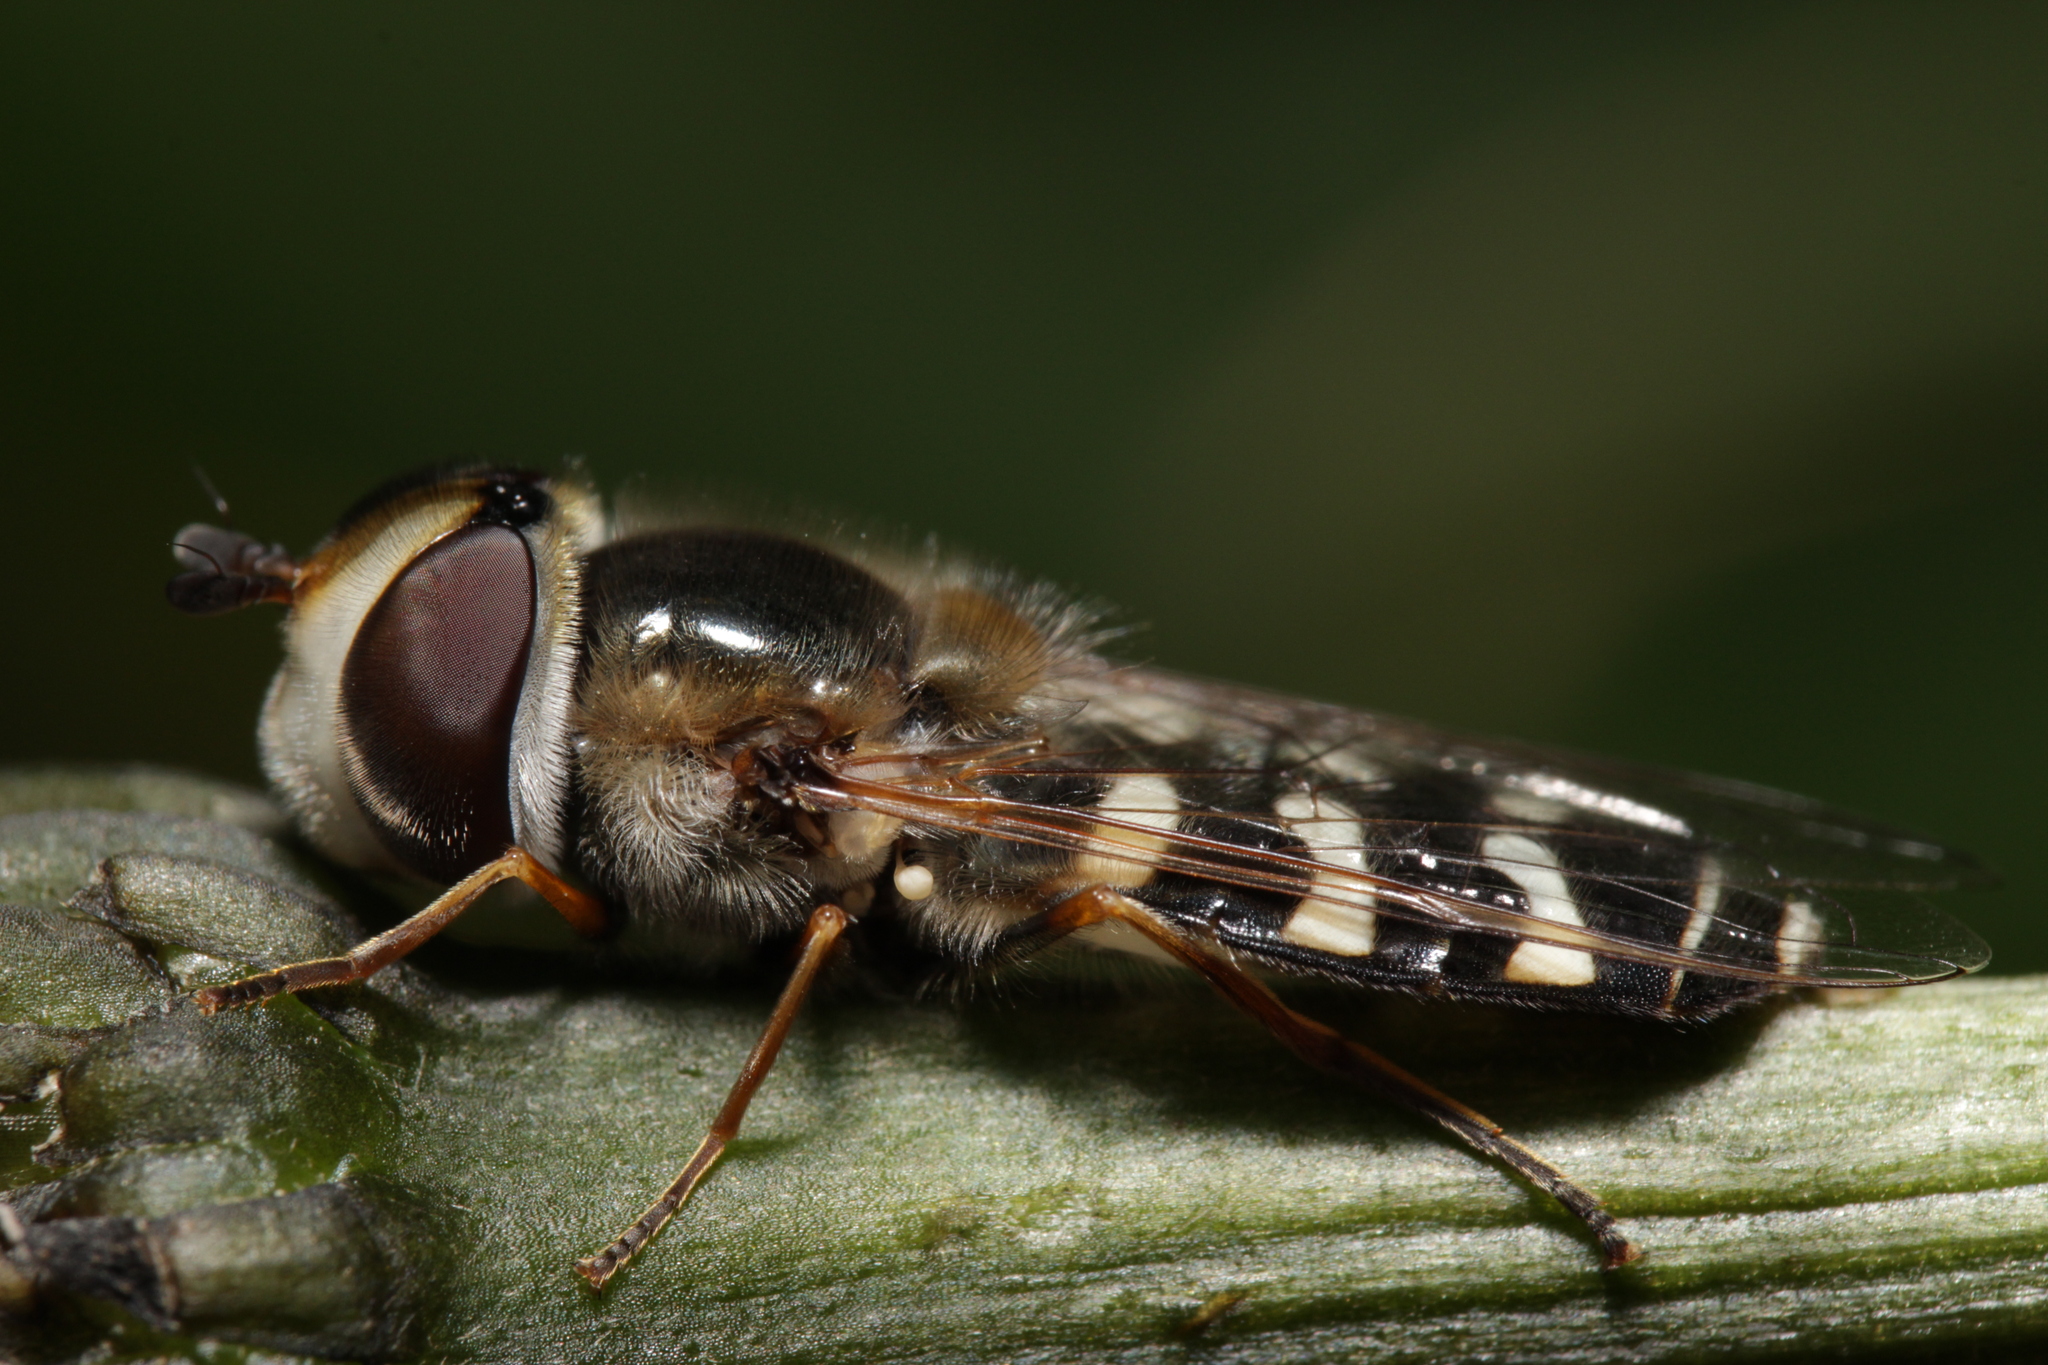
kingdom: Animalia
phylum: Arthropoda
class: Insecta
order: Diptera
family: Syrphidae
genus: Scaeva
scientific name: Scaeva pyrastri
